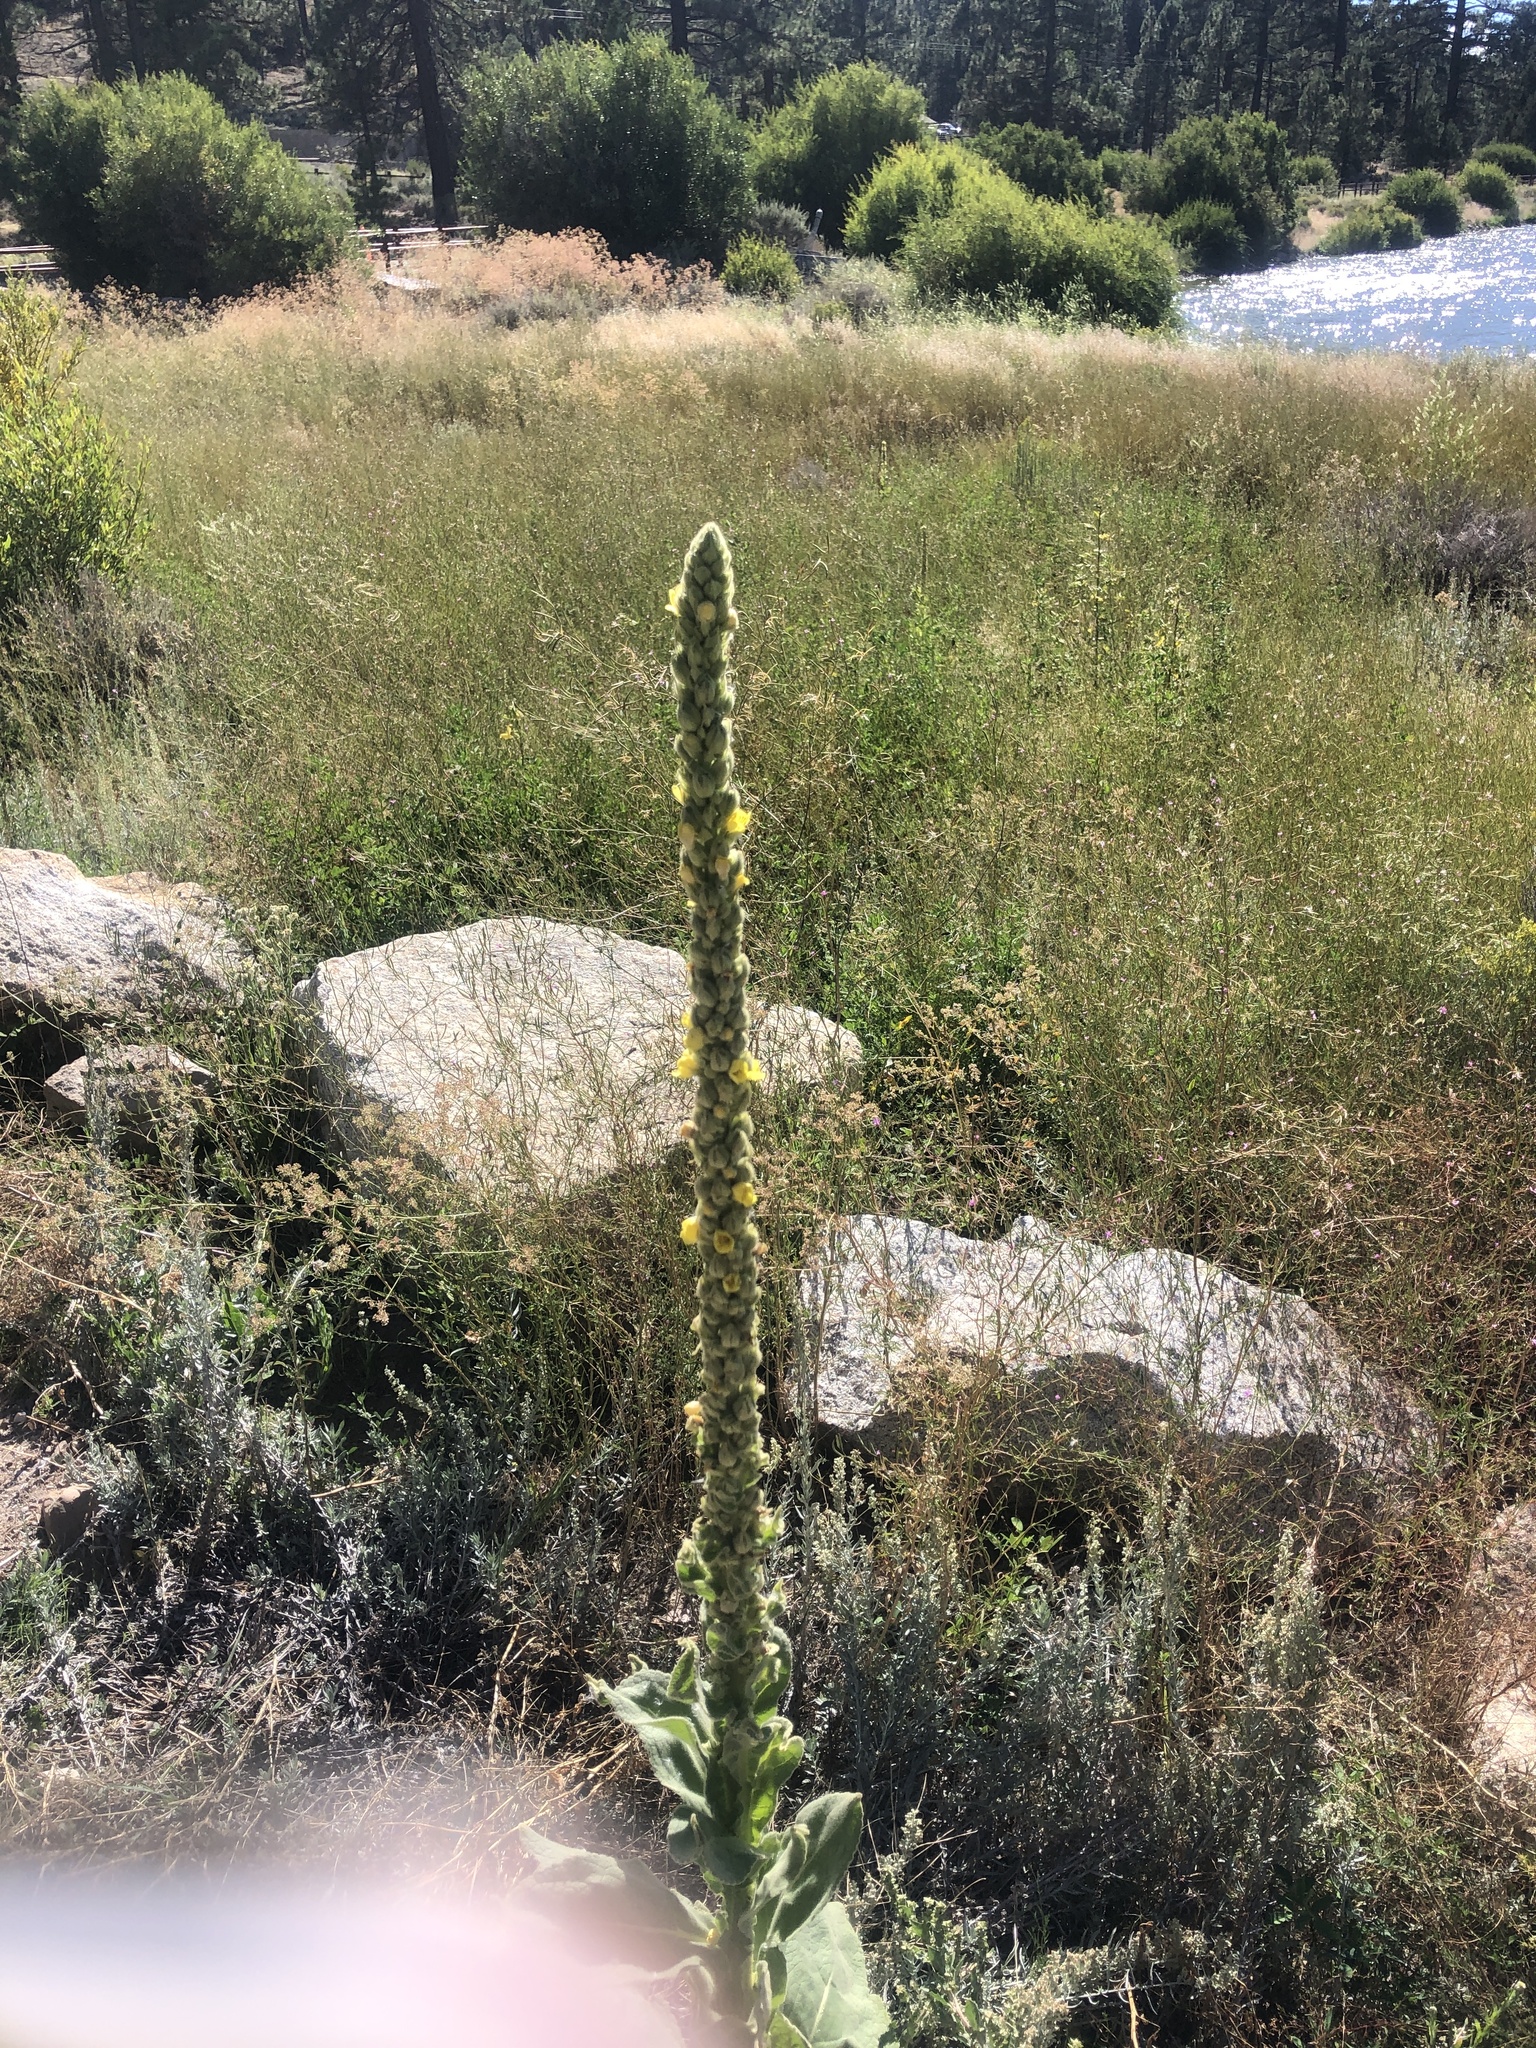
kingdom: Plantae
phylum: Tracheophyta
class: Magnoliopsida
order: Lamiales
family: Scrophulariaceae
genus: Verbascum
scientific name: Verbascum thapsus
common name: Common mullein
